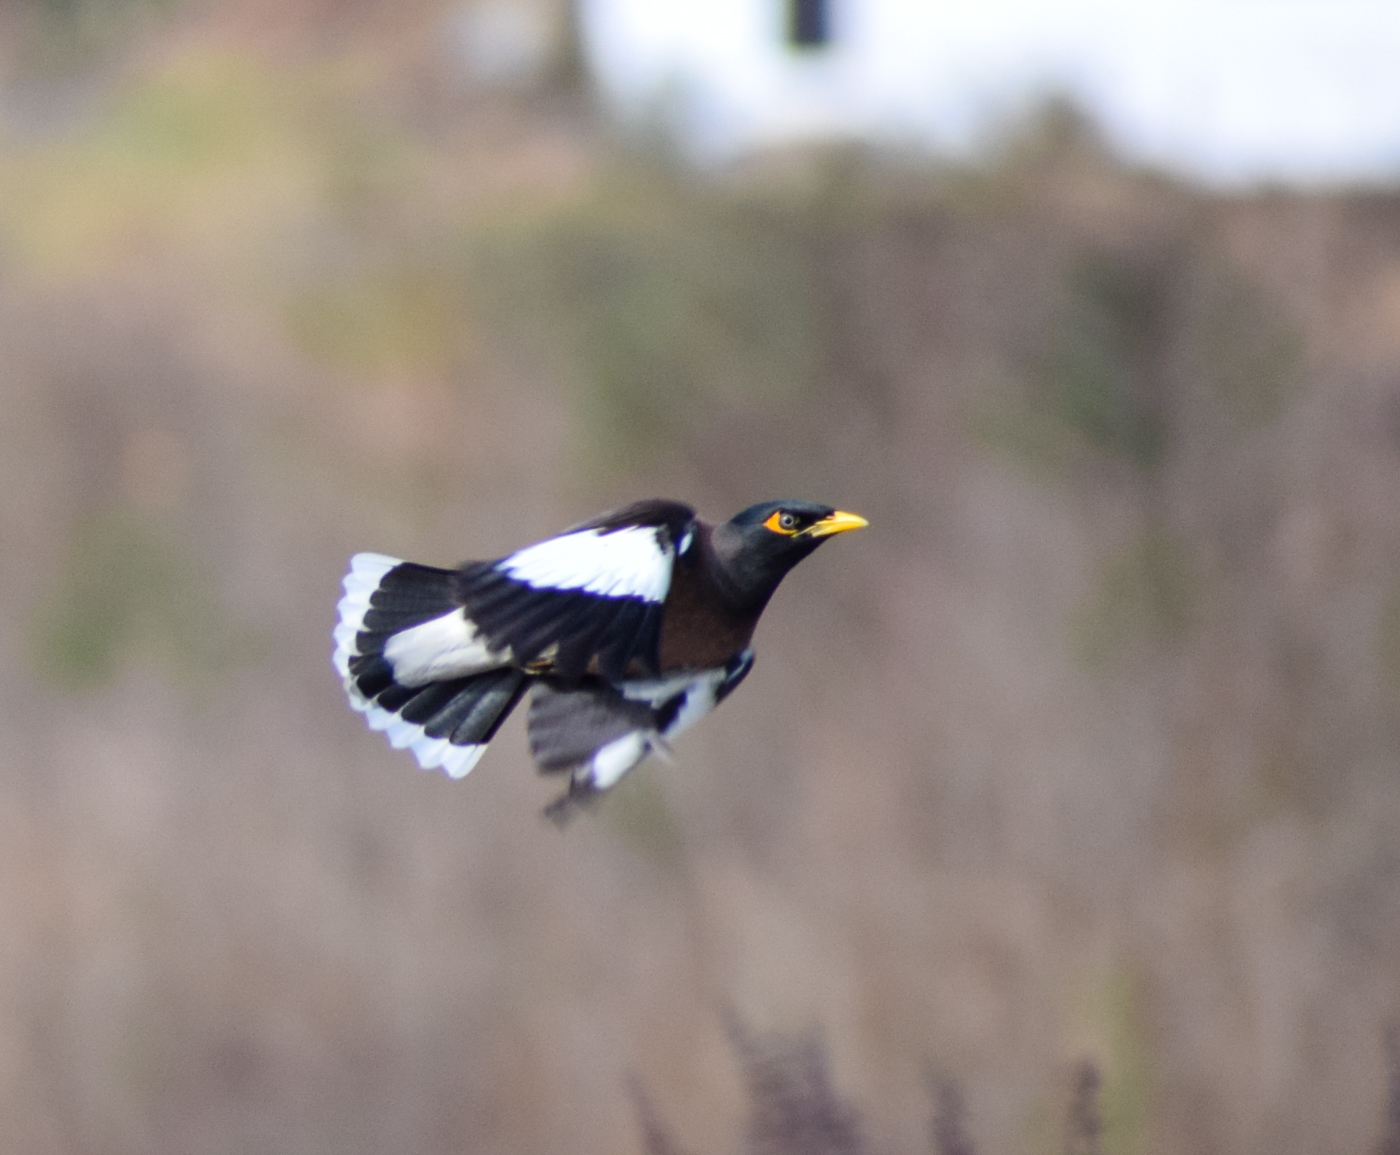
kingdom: Animalia
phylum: Chordata
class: Aves
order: Passeriformes
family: Sturnidae
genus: Acridotheres
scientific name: Acridotheres tristis
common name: Common myna
